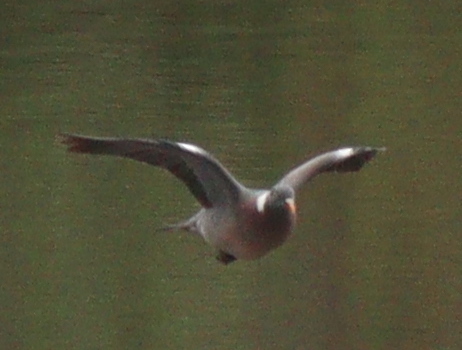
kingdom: Animalia
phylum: Chordata
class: Aves
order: Columbiformes
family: Columbidae
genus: Columba
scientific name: Columba palumbus
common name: Common wood pigeon
